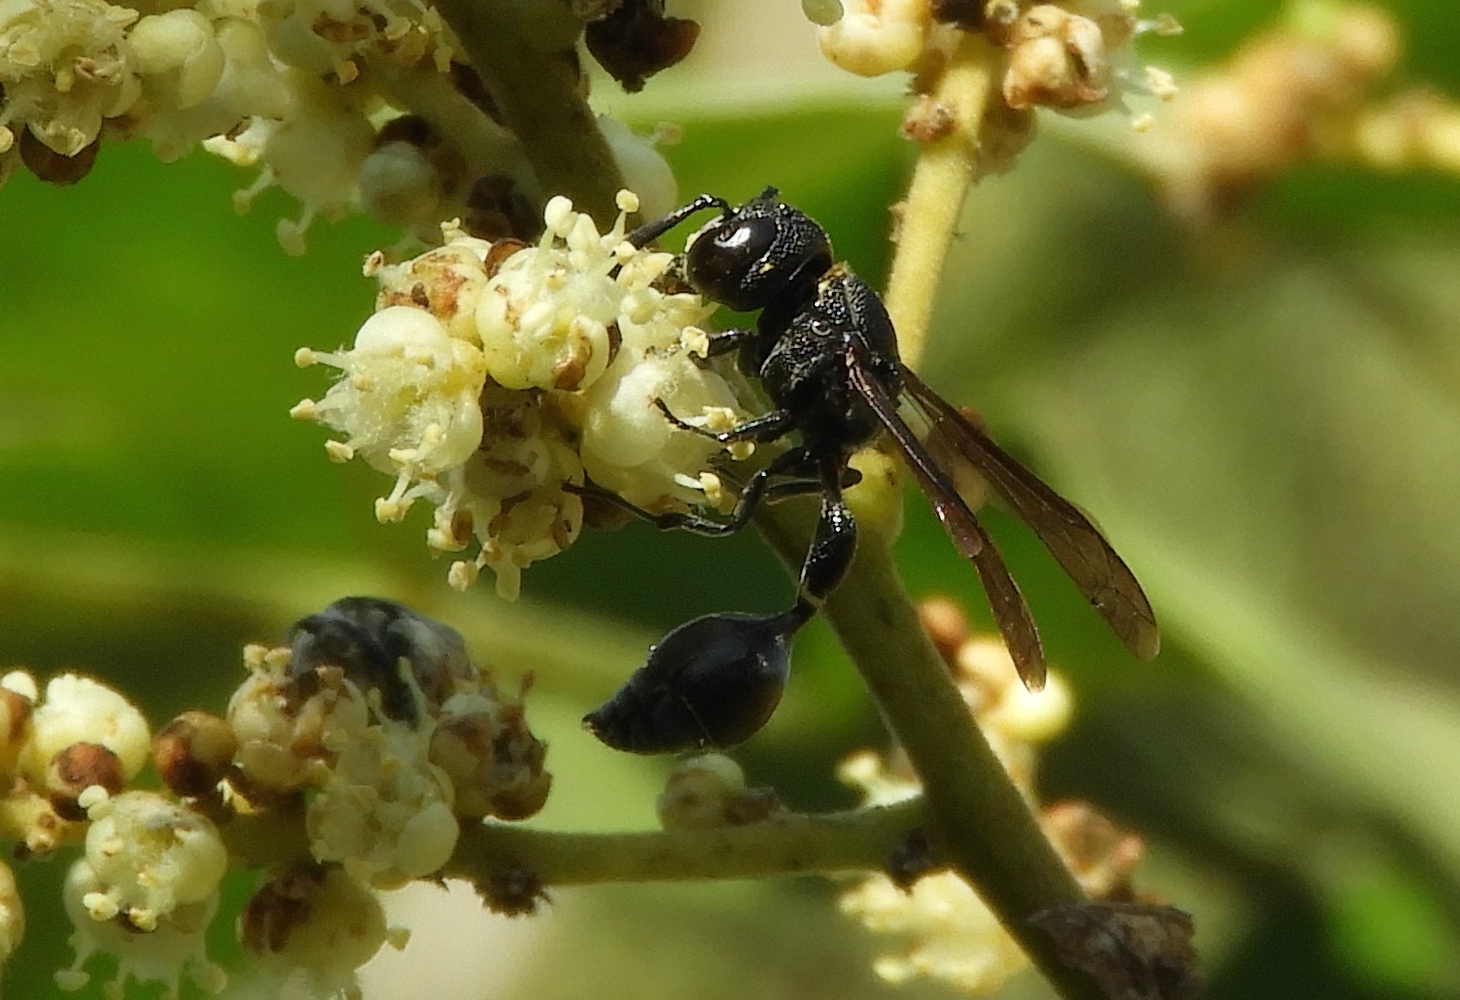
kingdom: Animalia
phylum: Arthropoda
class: Insecta
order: Hymenoptera
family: Eumenidae
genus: Zethus
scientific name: Zethus nigricornis
